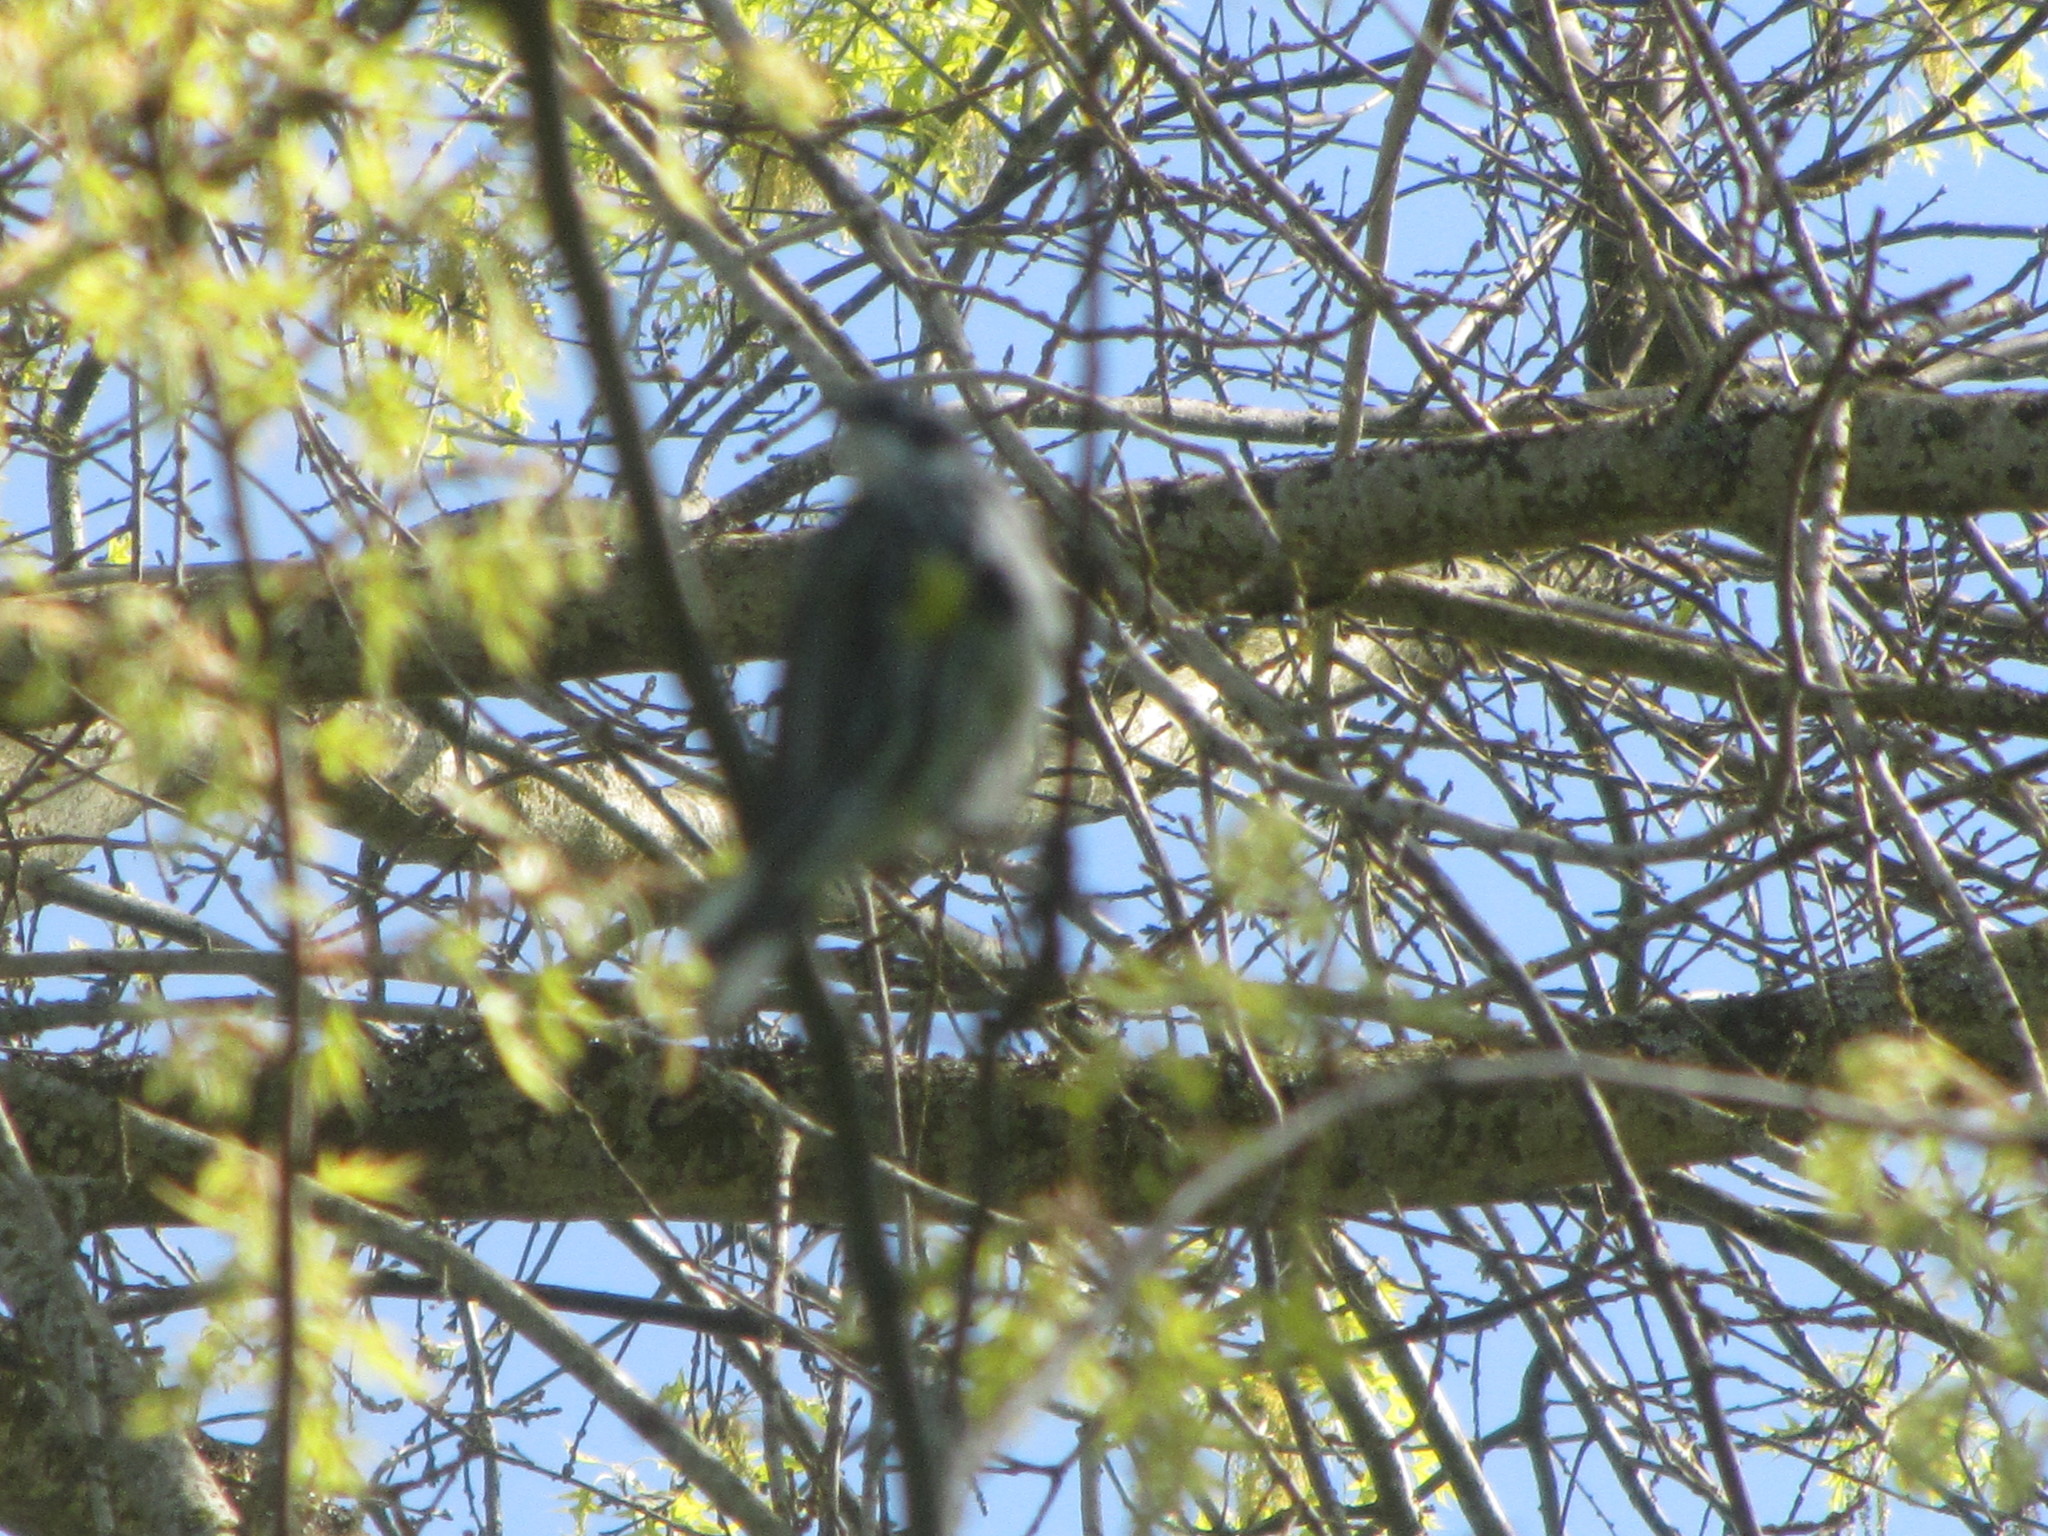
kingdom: Animalia
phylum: Chordata
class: Aves
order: Passeriformes
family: Parulidae
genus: Setophaga
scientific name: Setophaga coronata
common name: Myrtle warbler
